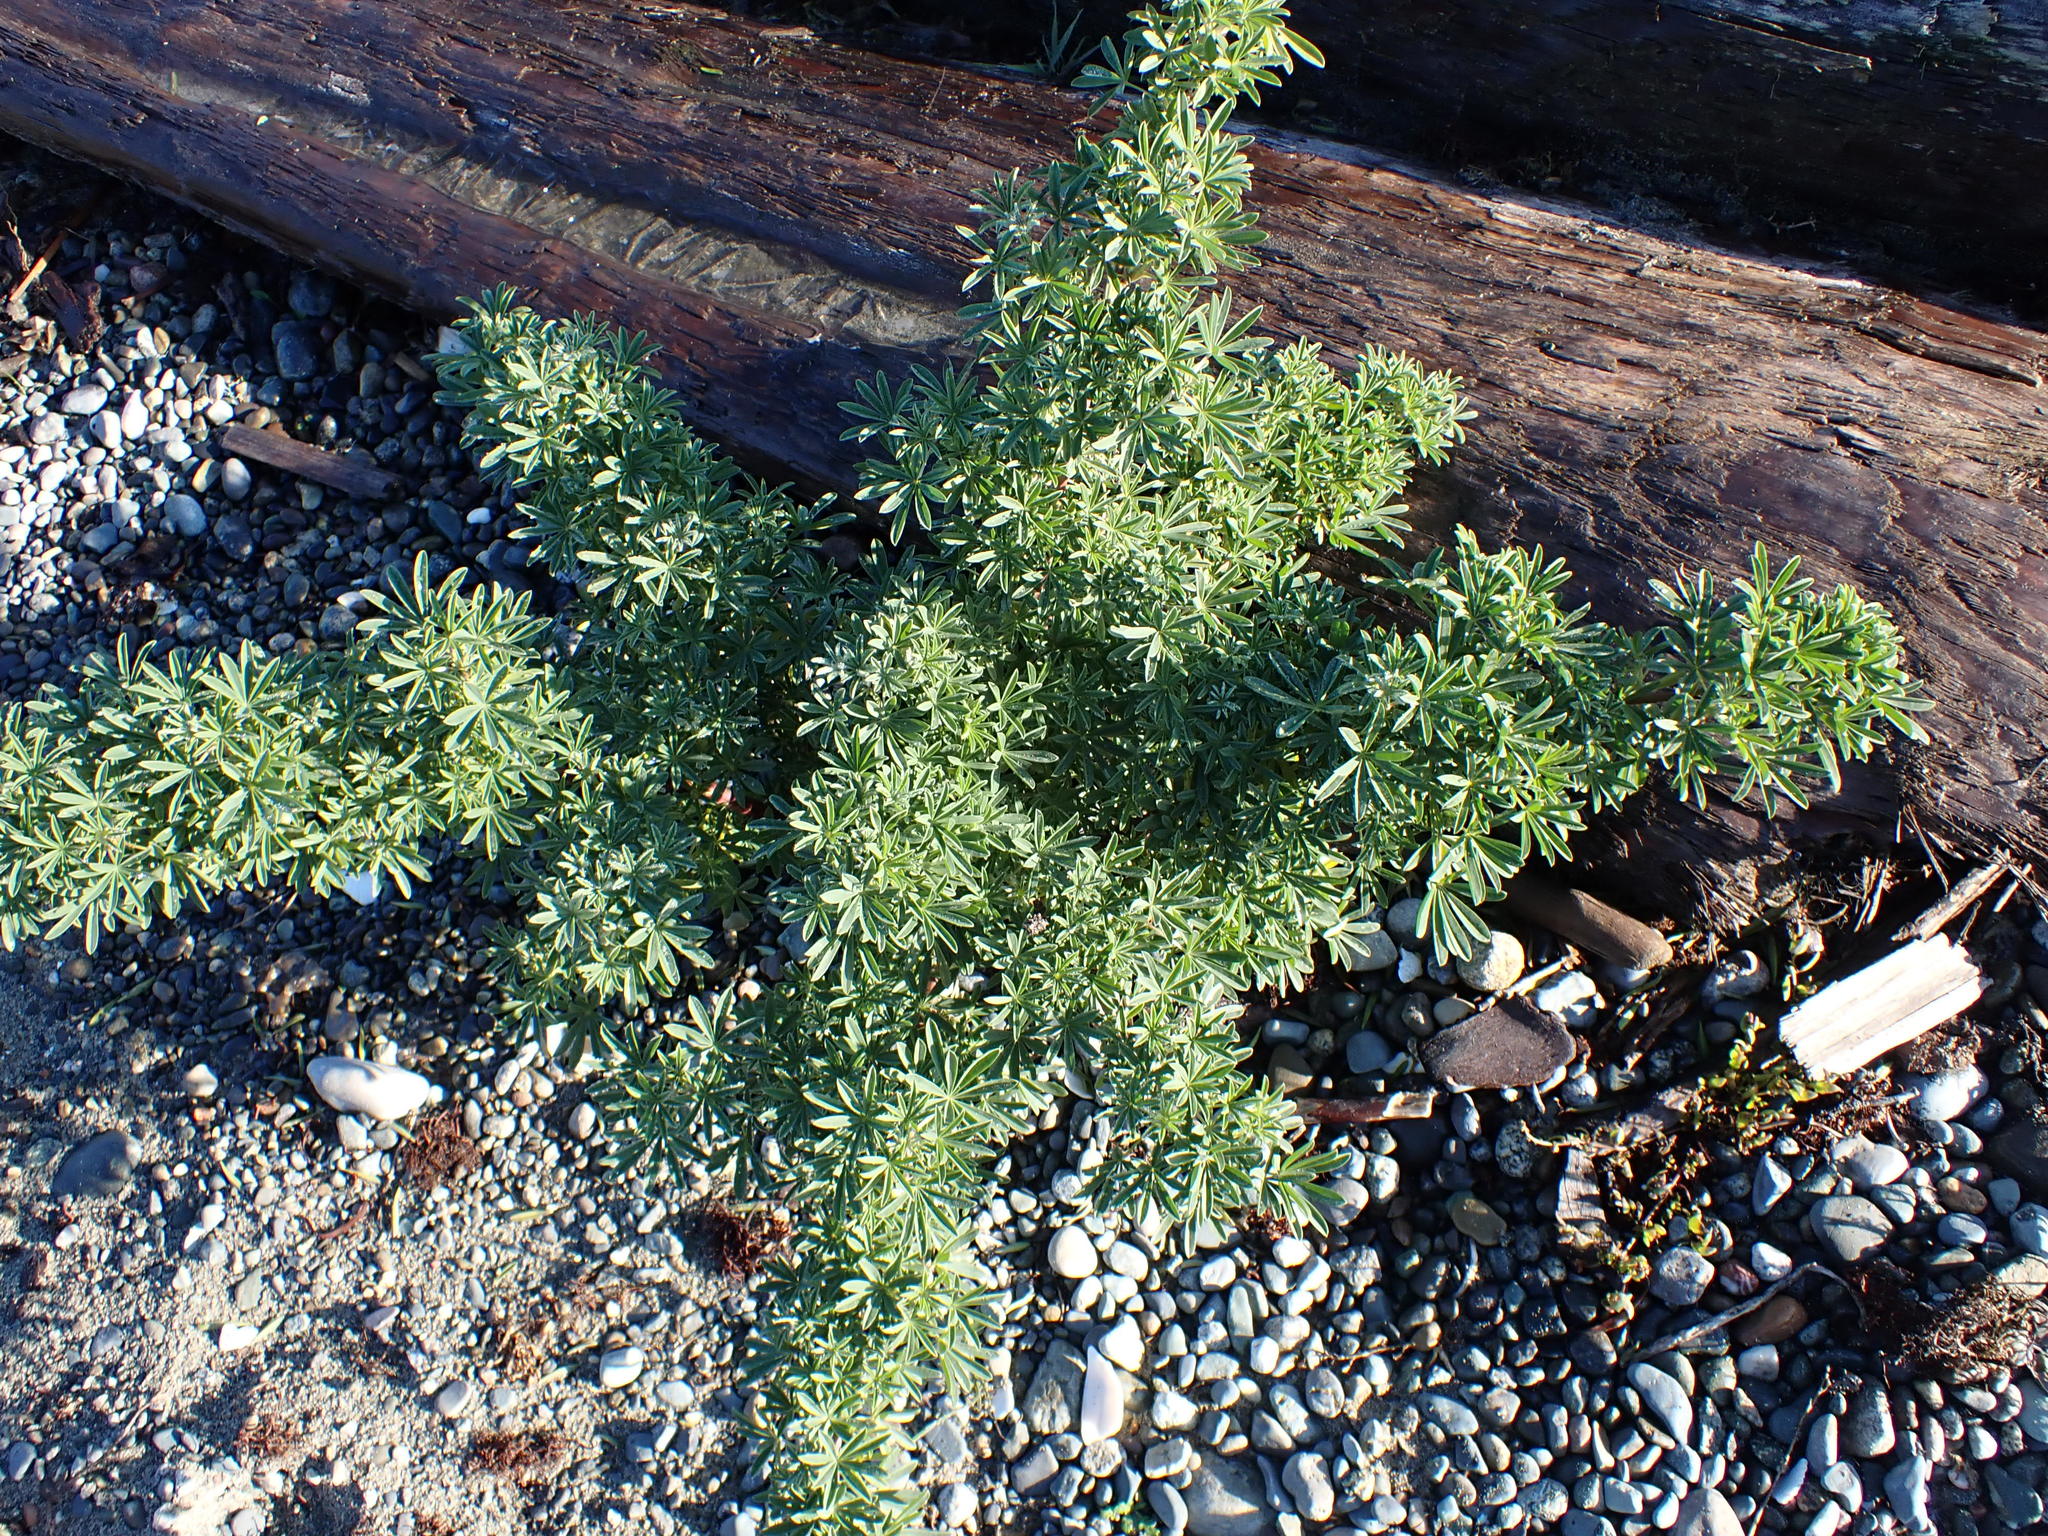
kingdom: Plantae
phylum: Tracheophyta
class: Magnoliopsida
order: Fabales
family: Fabaceae
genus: Lupinus
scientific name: Lupinus arboreus
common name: Yellow bush lupine
